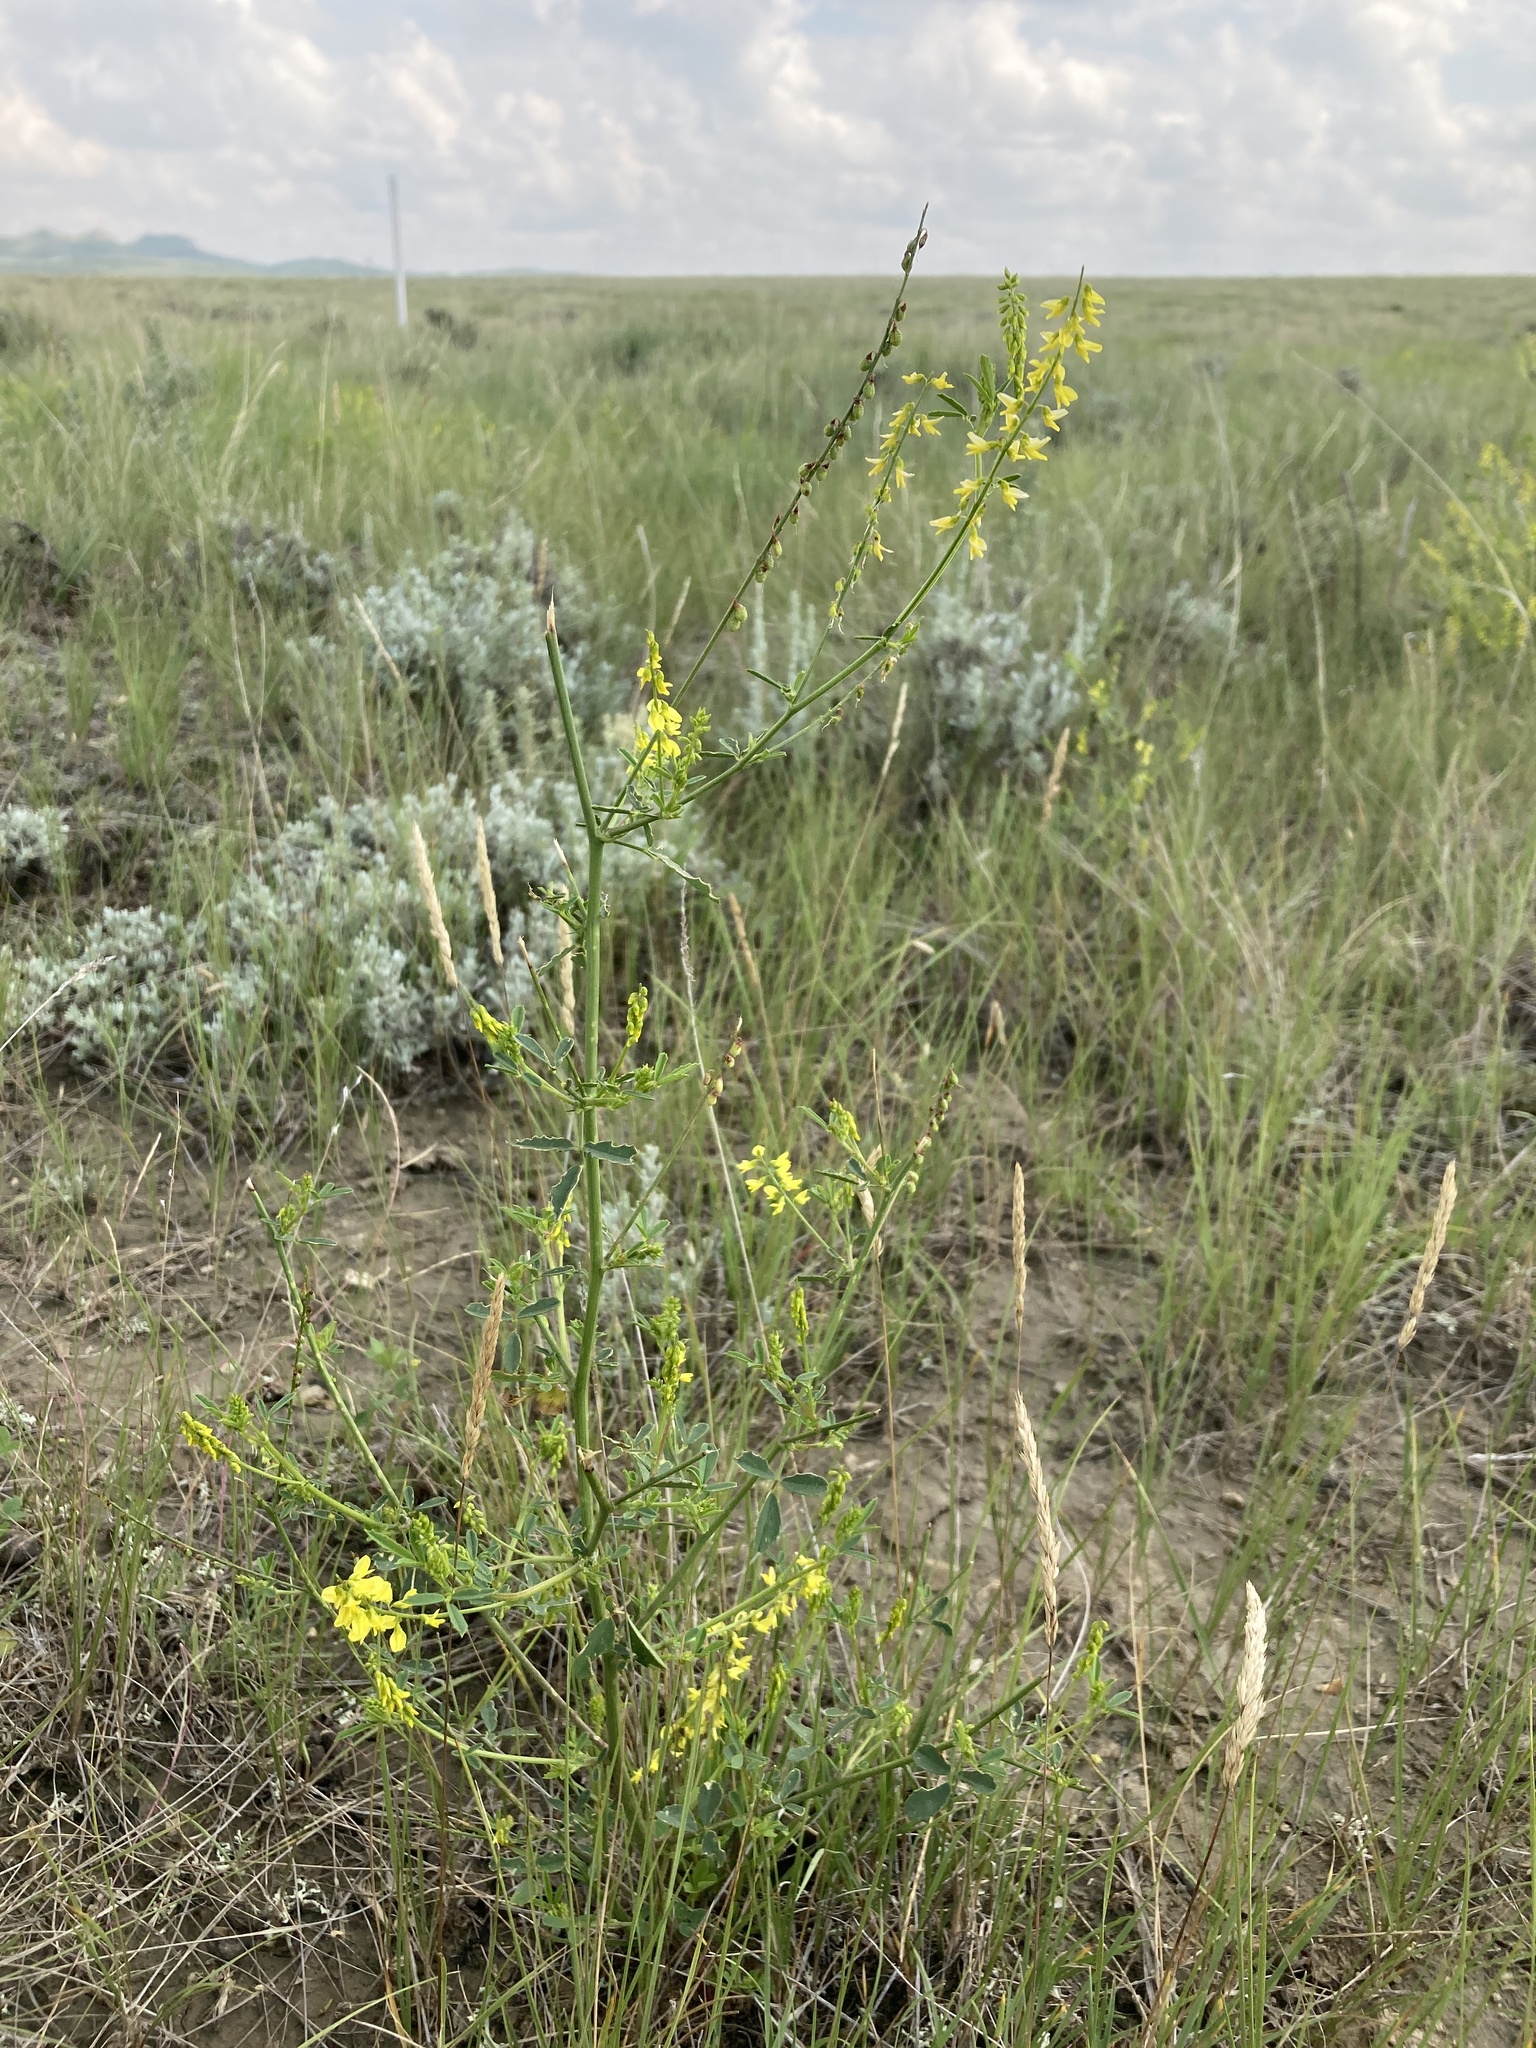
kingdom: Plantae
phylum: Tracheophyta
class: Magnoliopsida
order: Fabales
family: Fabaceae
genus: Melilotus
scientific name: Melilotus officinalis
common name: Sweetclover
